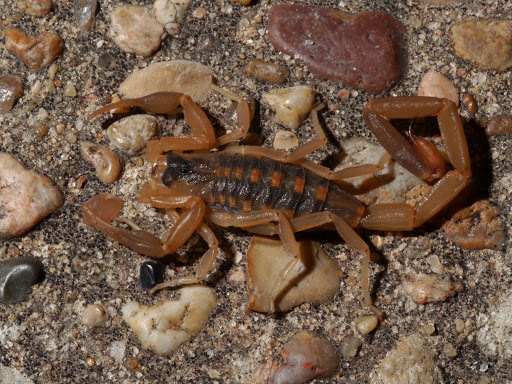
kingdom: Animalia
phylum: Arthropoda
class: Arachnida
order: Scorpiones
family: Buthidae
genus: Centruroides
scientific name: Centruroides vittatus
